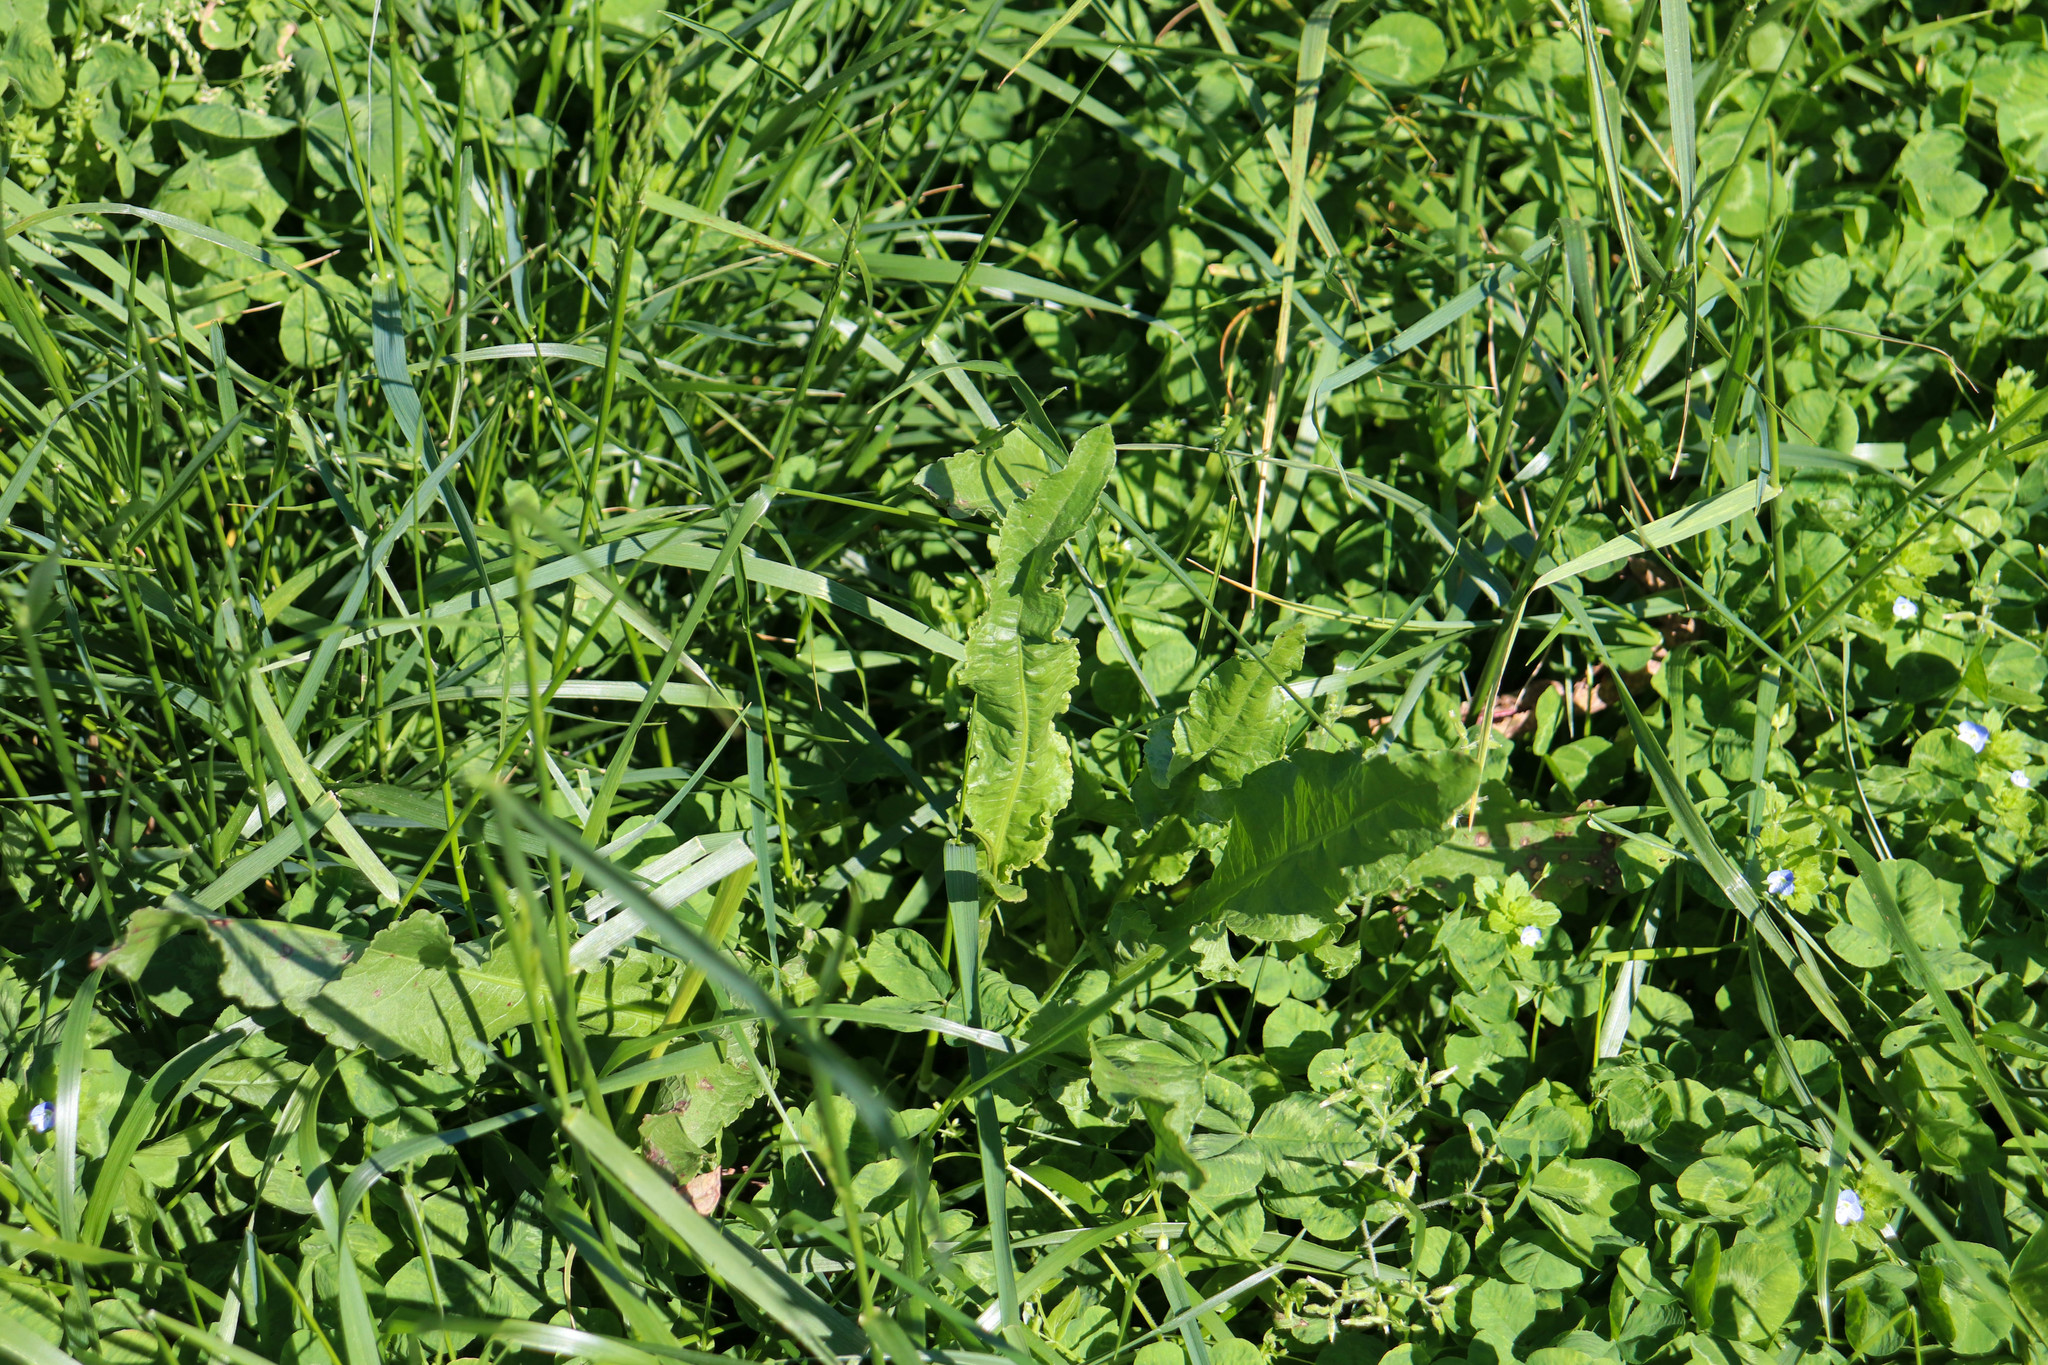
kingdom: Plantae
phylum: Tracheophyta
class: Magnoliopsida
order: Caryophyllales
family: Polygonaceae
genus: Rumex
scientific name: Rumex crispus
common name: Curled dock
